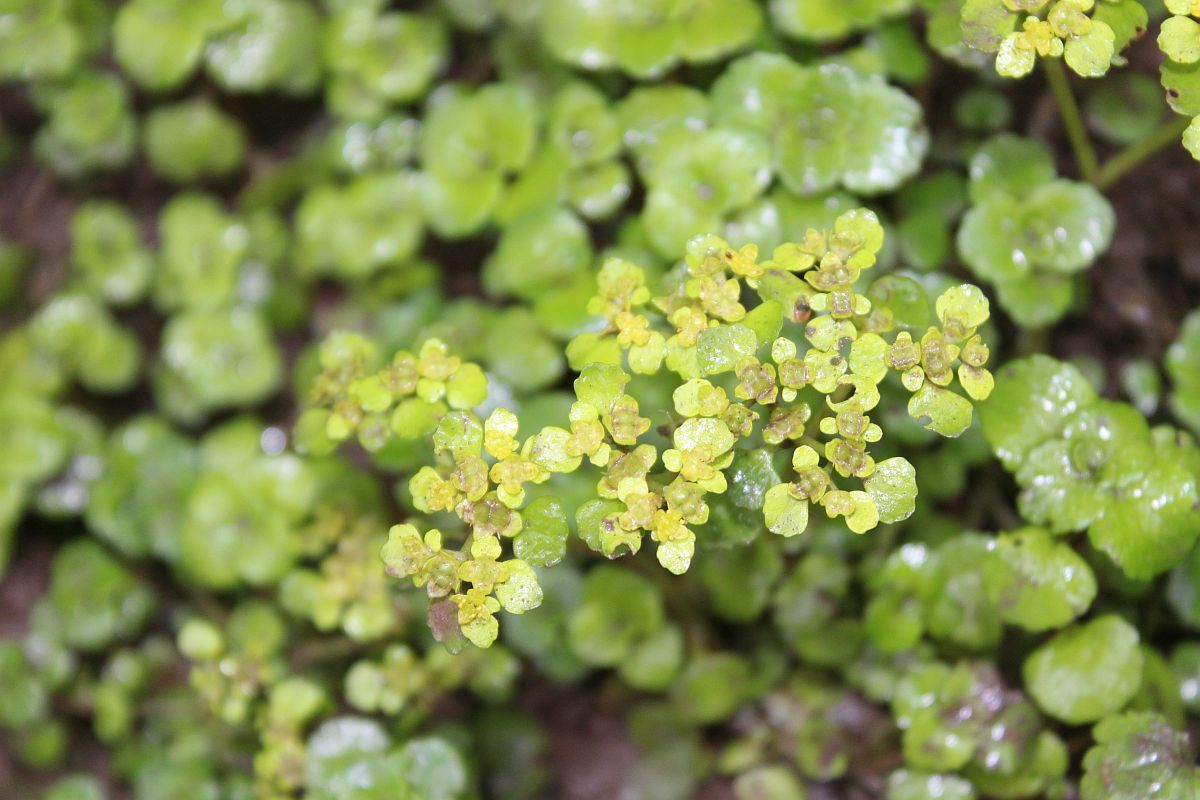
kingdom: Plantae
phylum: Tracheophyta
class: Magnoliopsida
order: Saxifragales
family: Saxifragaceae
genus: Chrysosplenium
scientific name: Chrysosplenium oppositifolium
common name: Opposite-leaved golden-saxifrage
